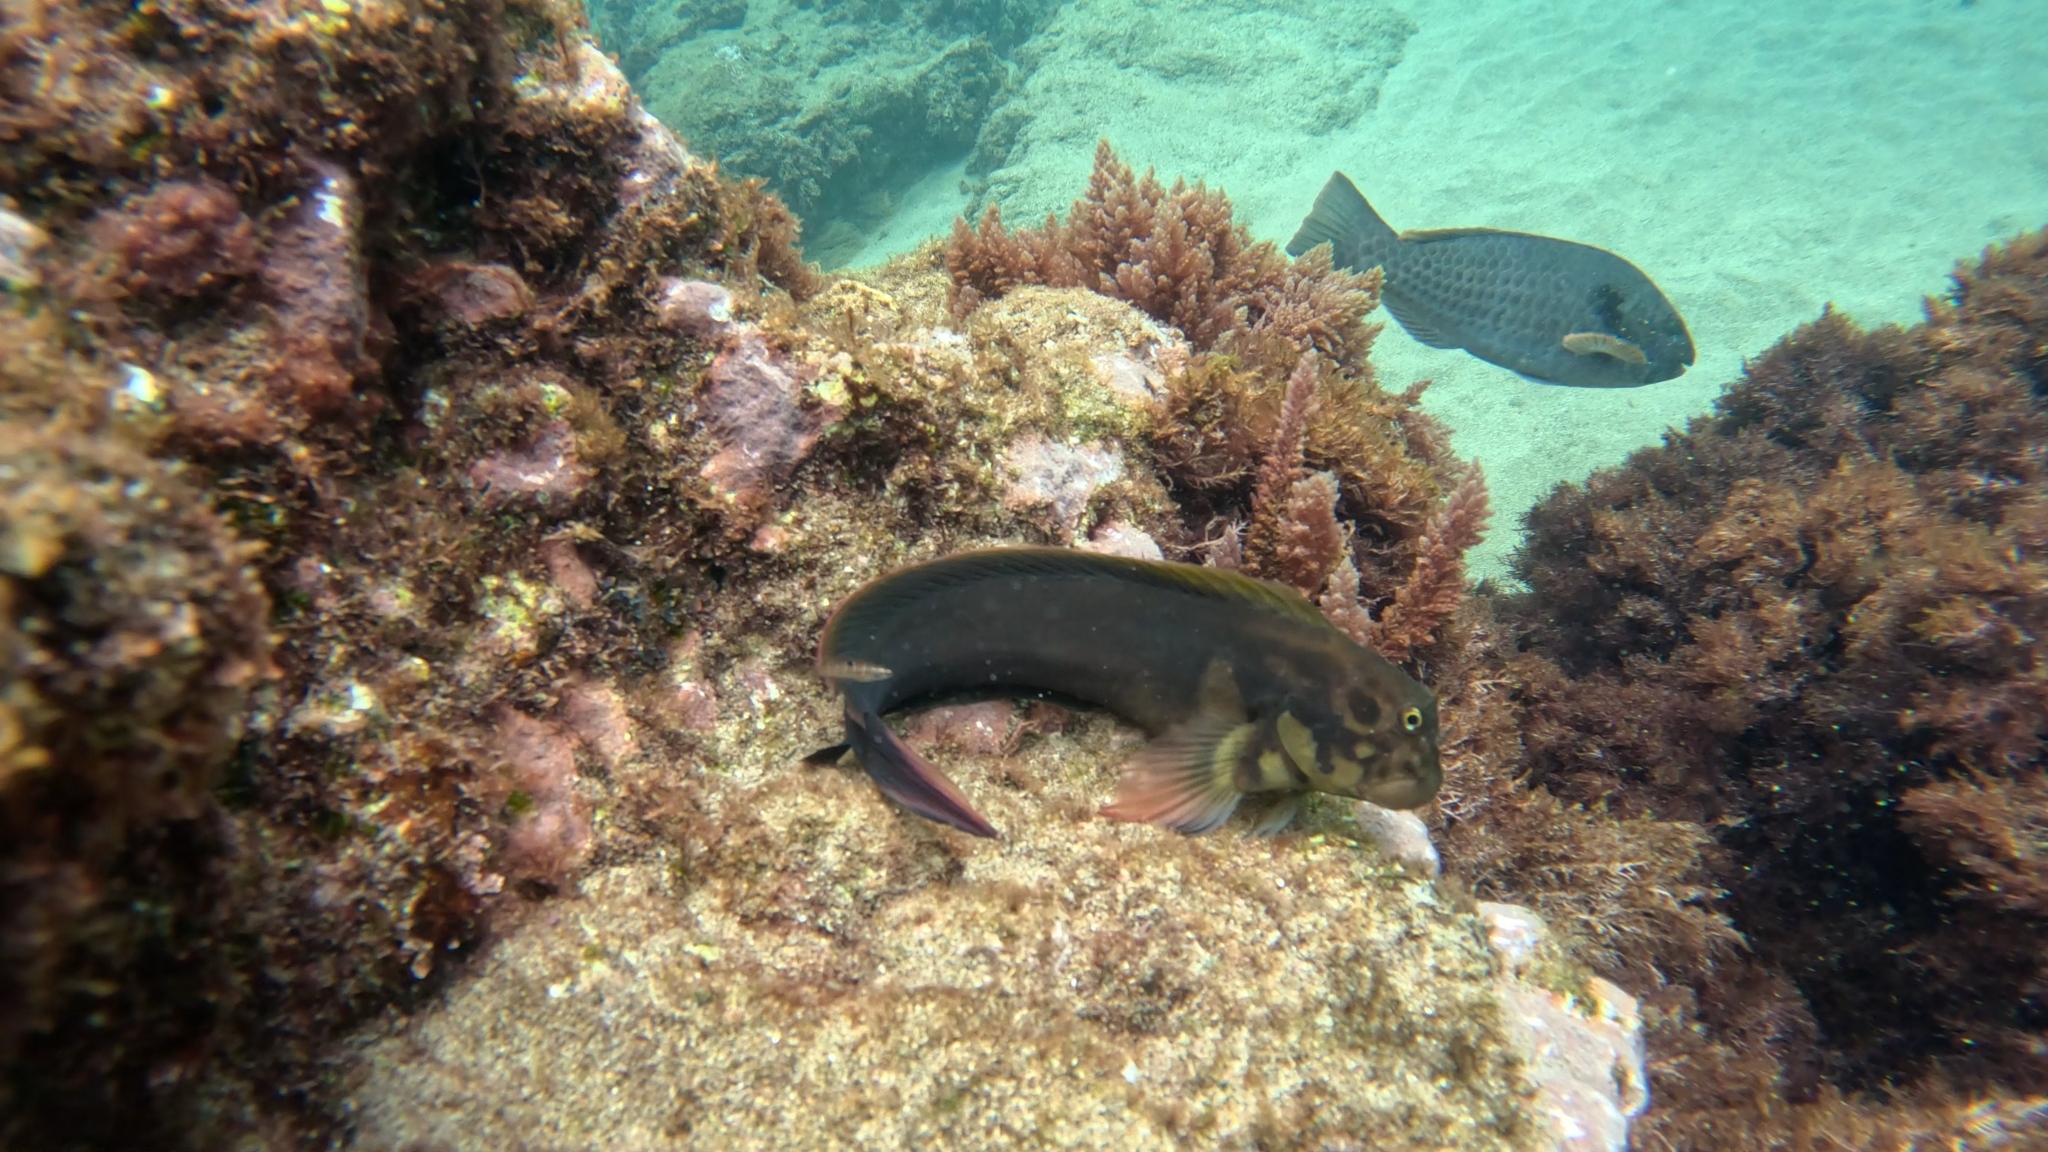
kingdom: Animalia
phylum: Chordata
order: Perciformes
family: Blenniidae
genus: Ophioblennius
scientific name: Ophioblennius atlanticus
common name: Redlip blenny
